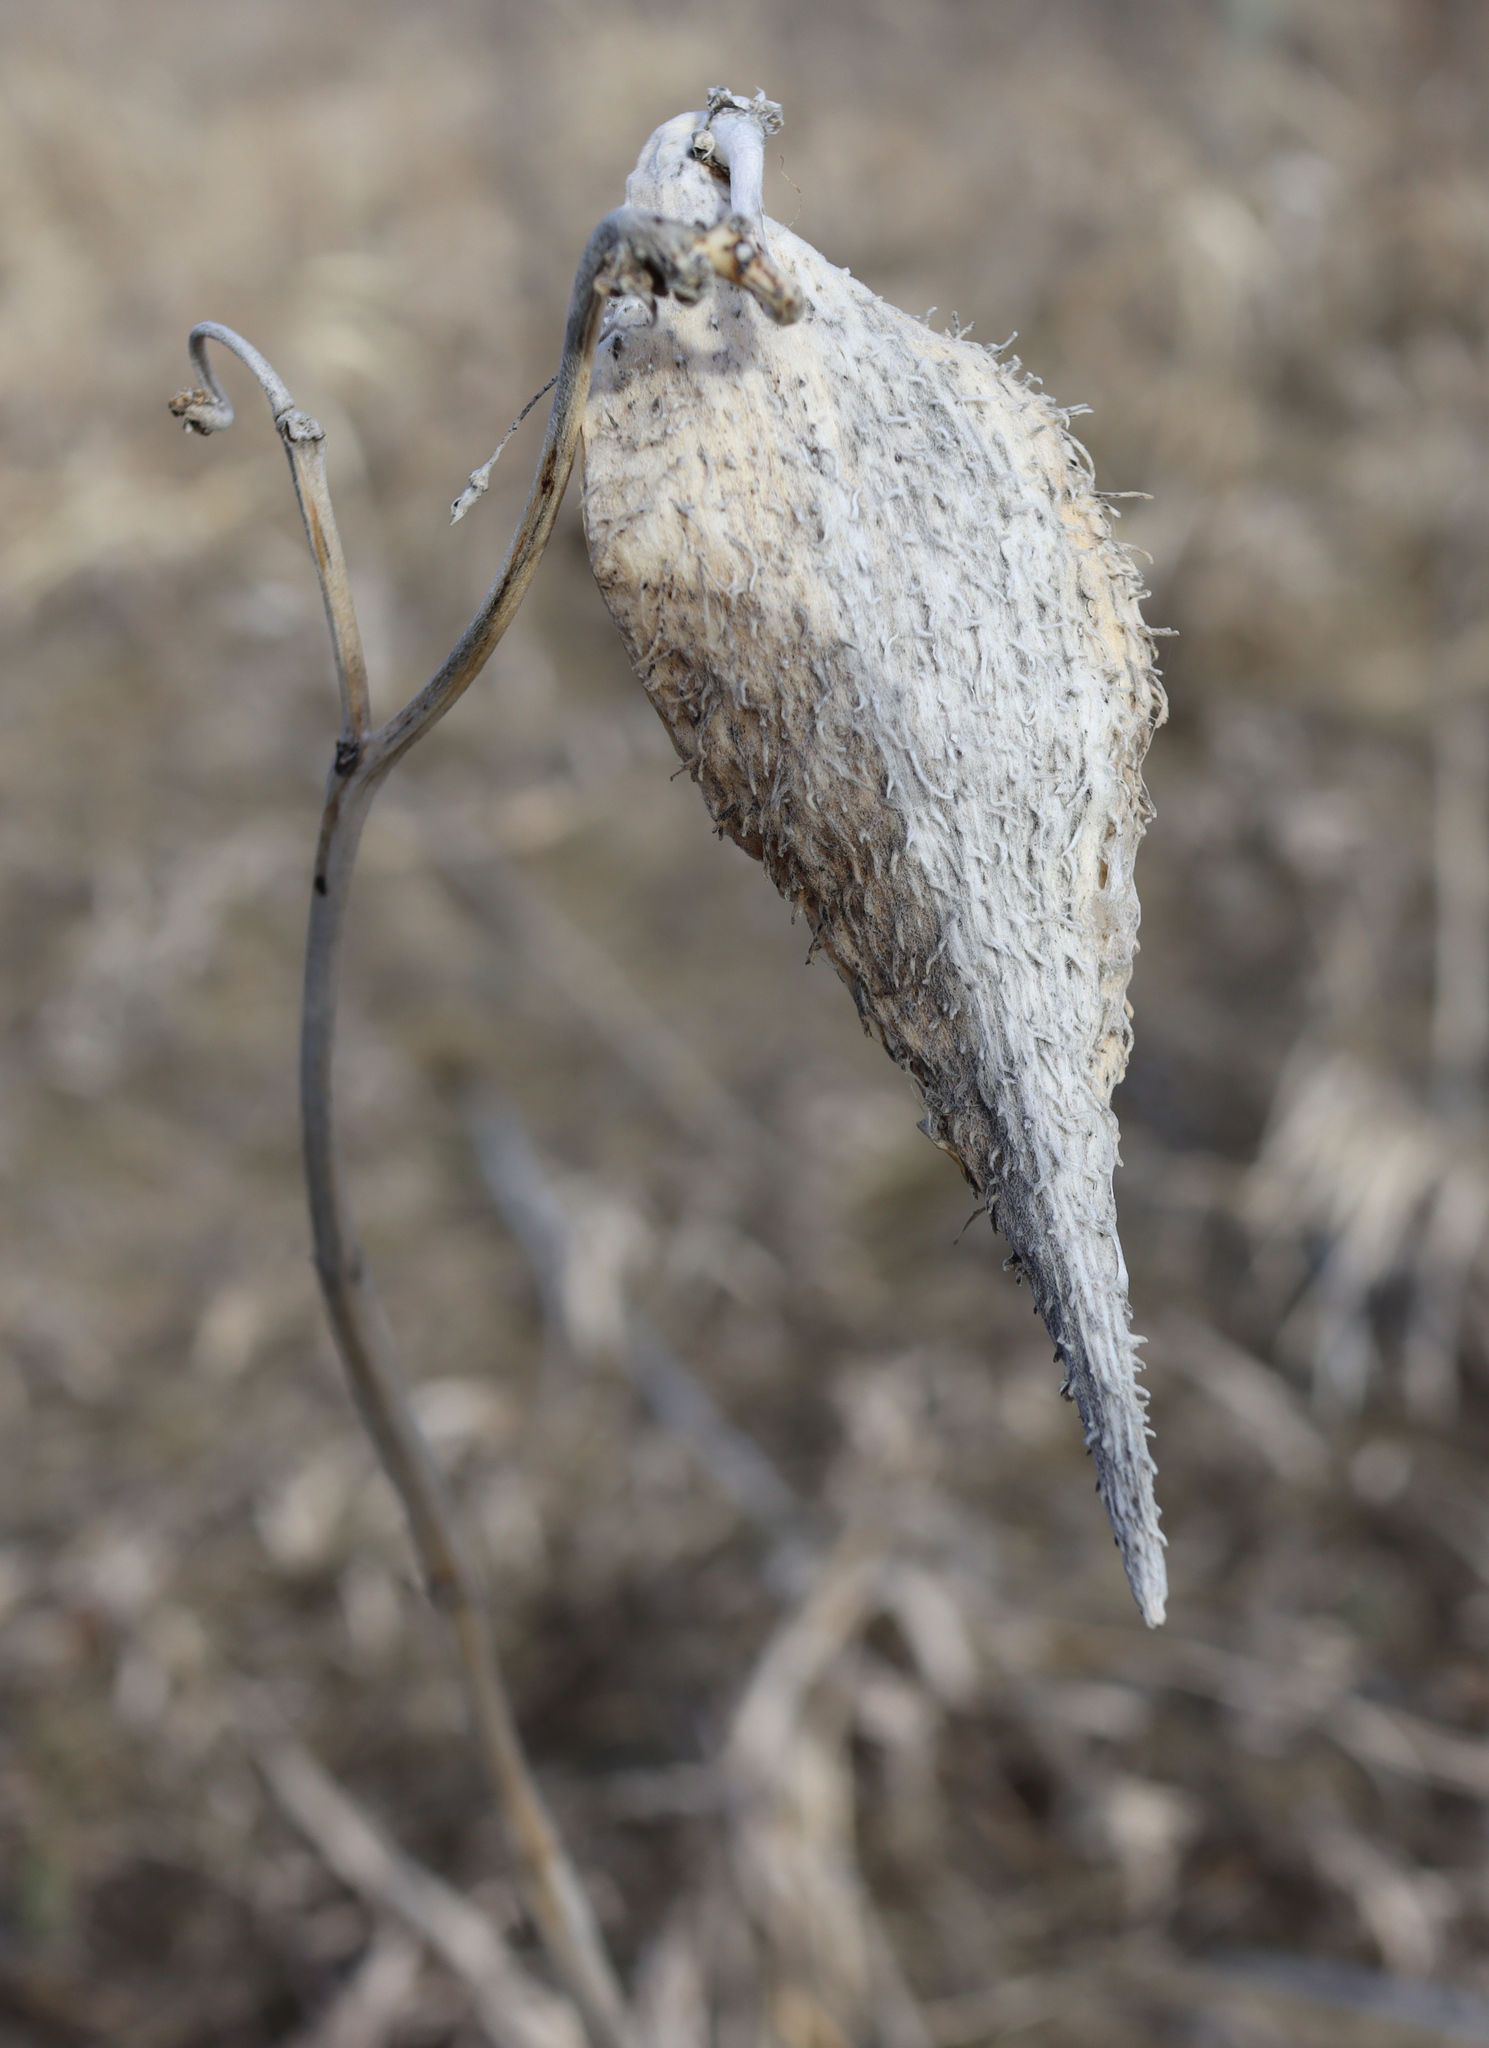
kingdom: Plantae
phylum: Tracheophyta
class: Magnoliopsida
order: Gentianales
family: Apocynaceae
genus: Asclepias
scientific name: Asclepias syriaca
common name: Common milkweed
